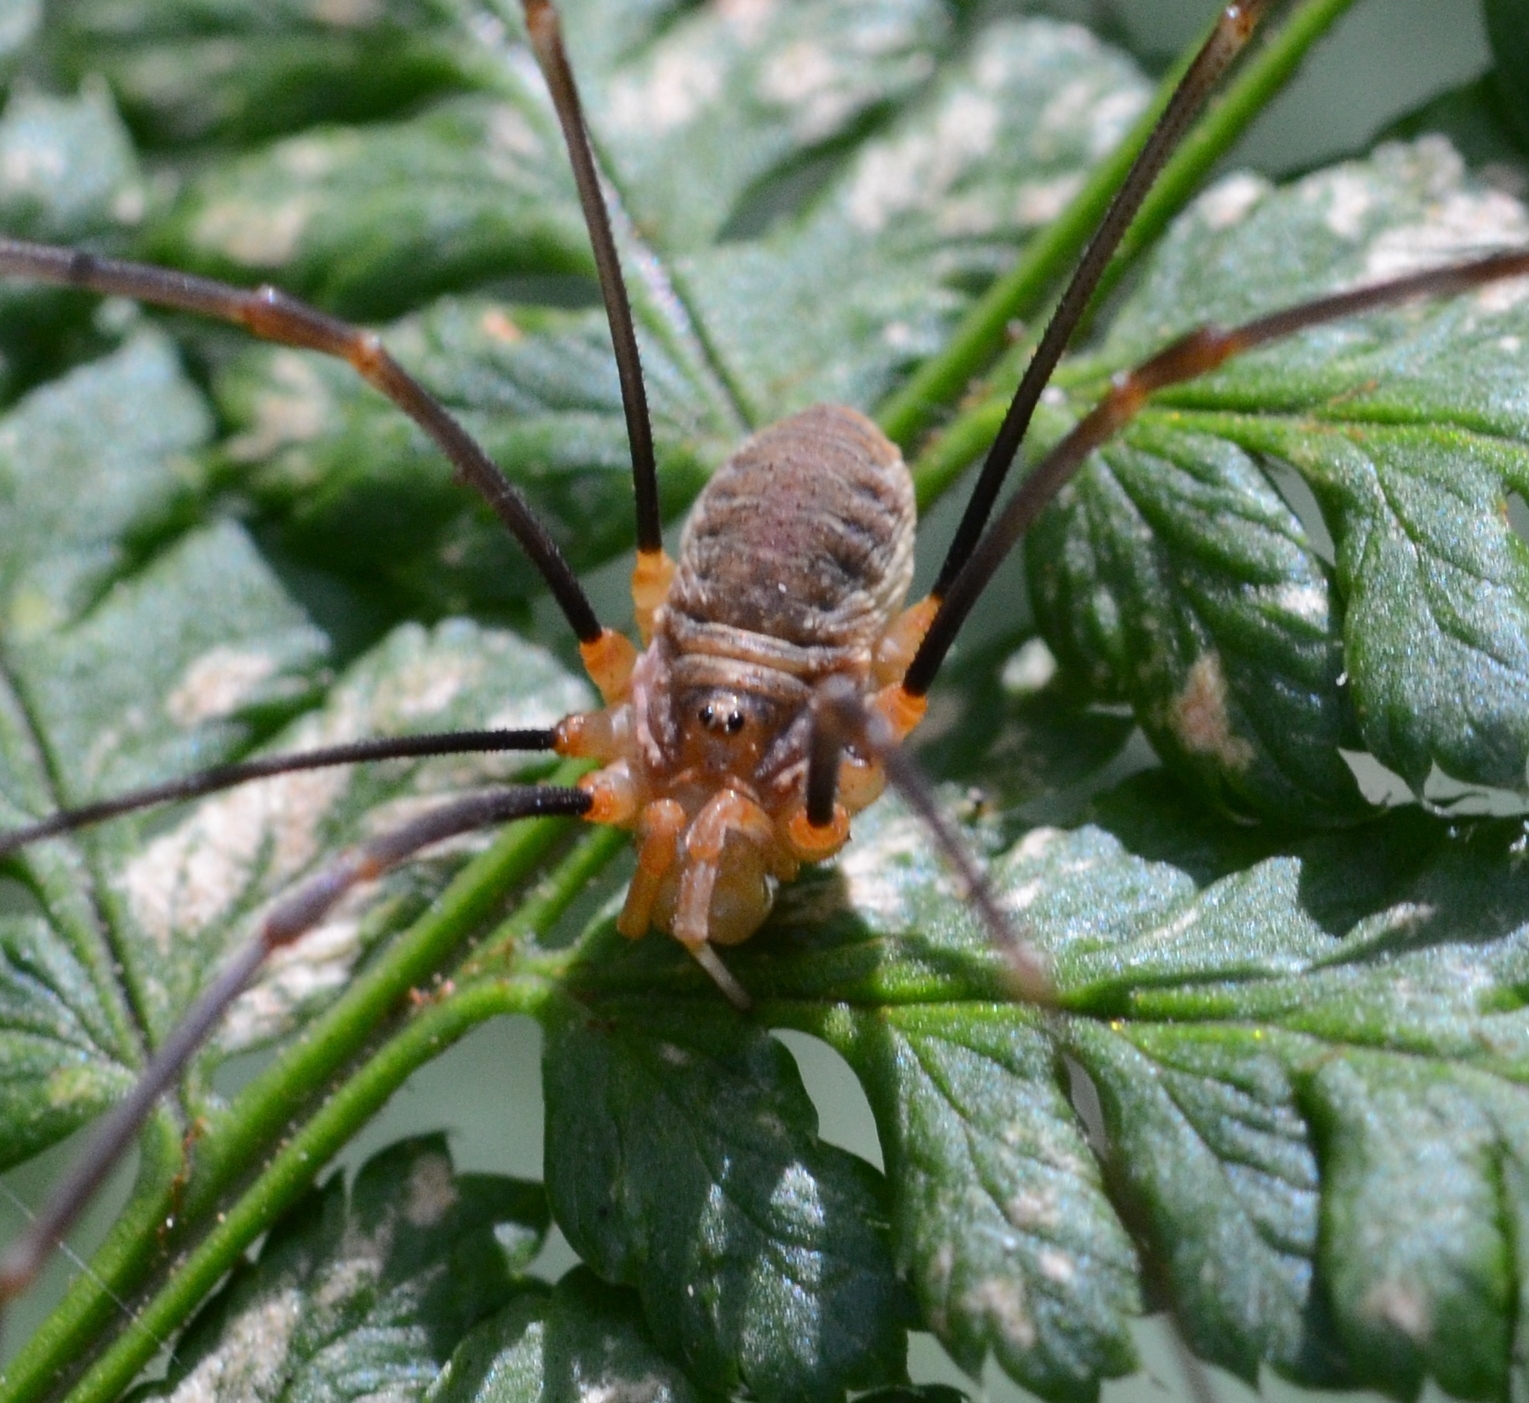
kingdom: Animalia
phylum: Arthropoda
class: Arachnida
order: Opiliones
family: Phalangiidae
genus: Opilio
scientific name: Opilio canestrinii
